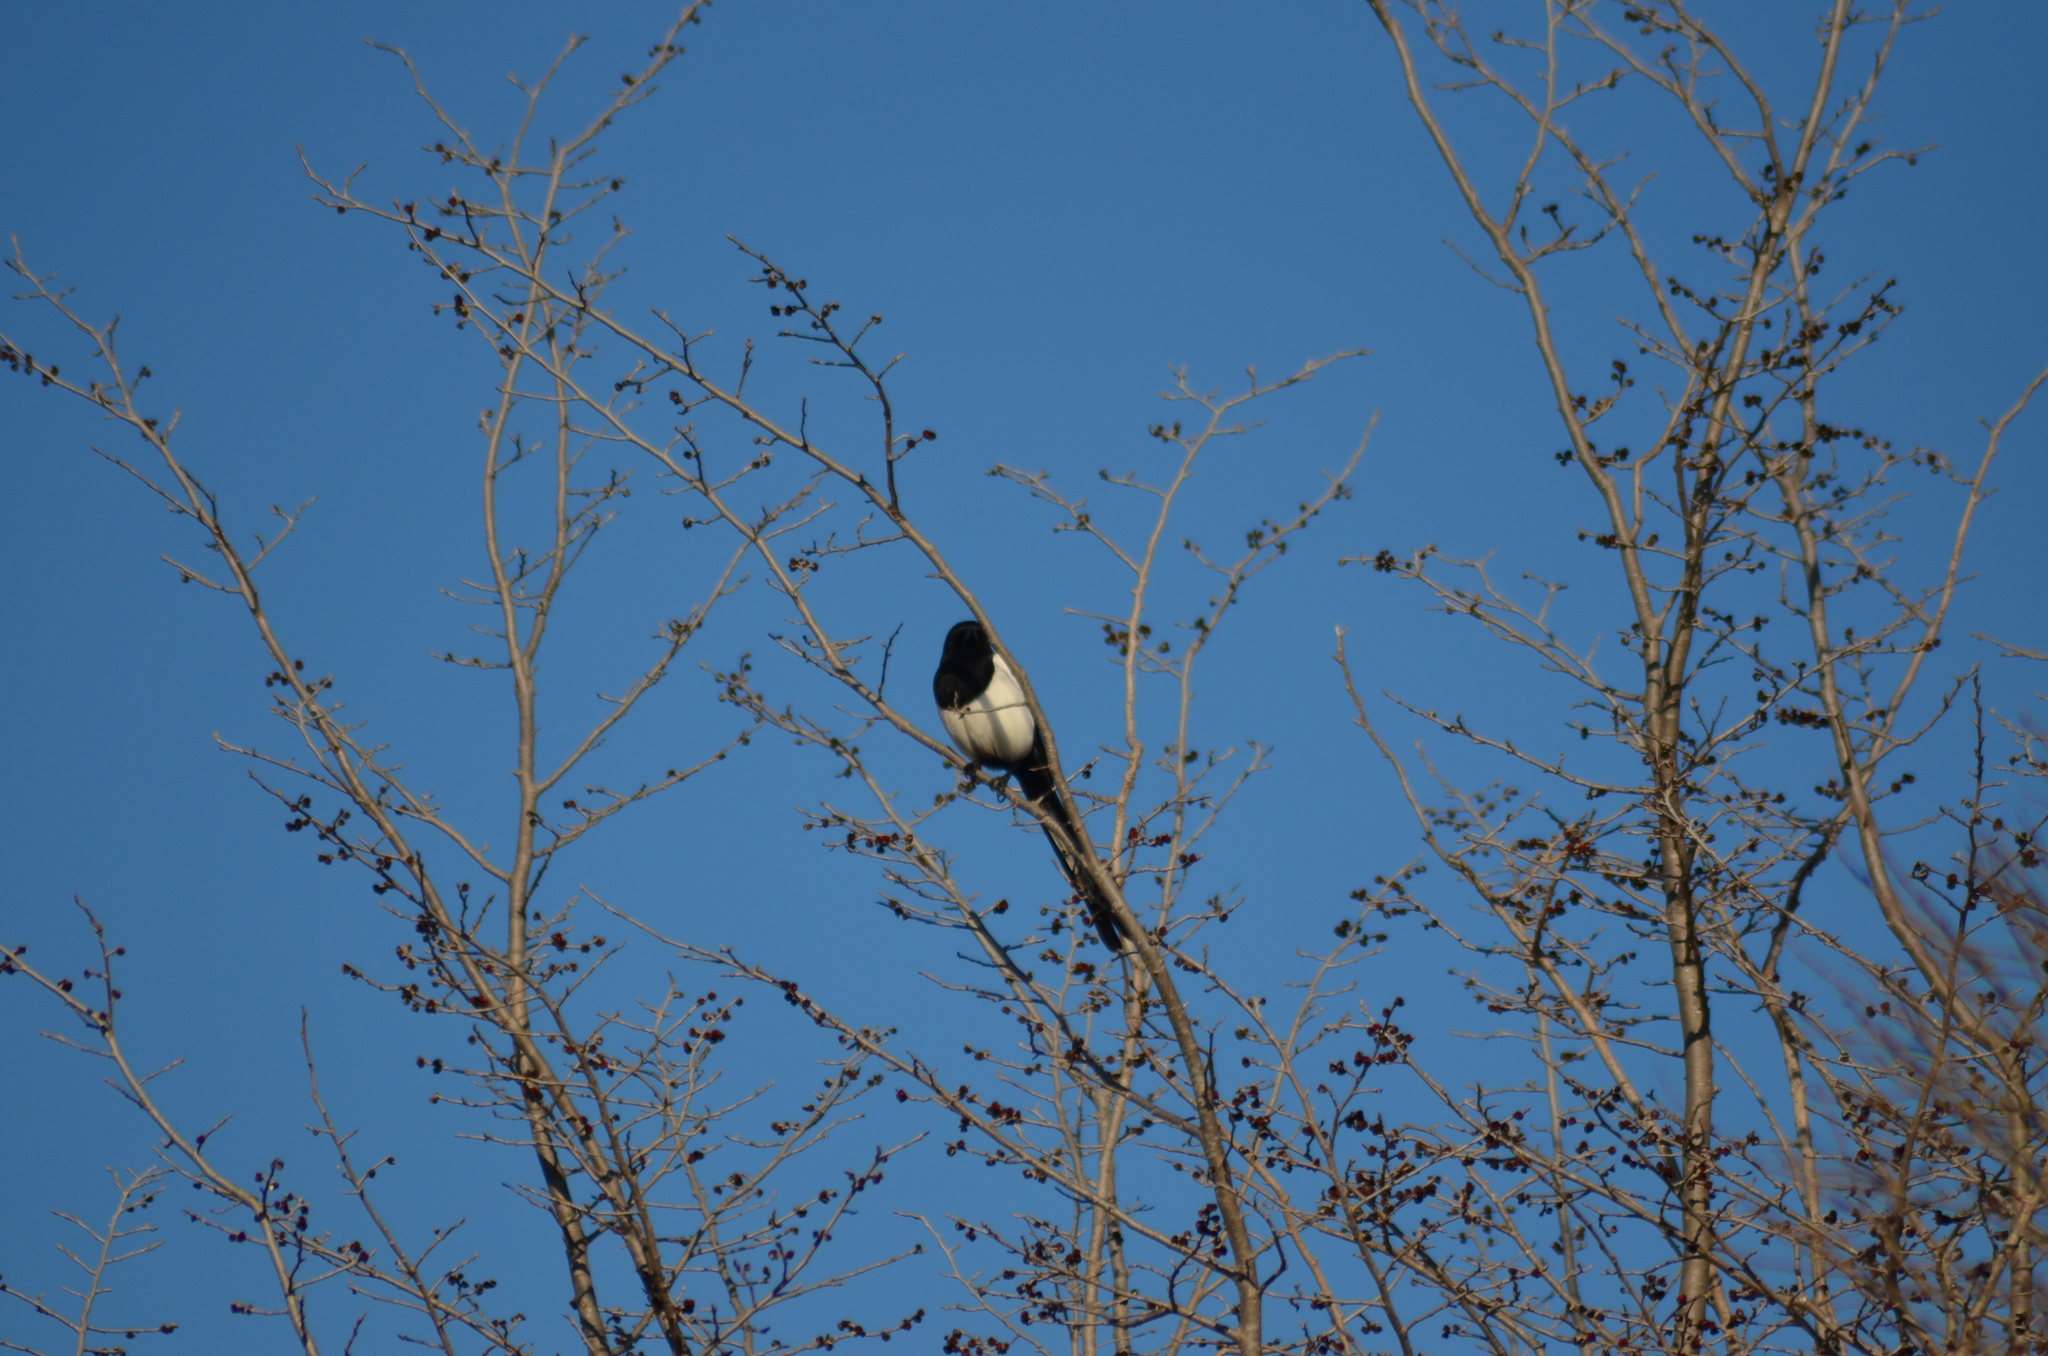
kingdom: Animalia
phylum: Chordata
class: Aves
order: Passeriformes
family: Corvidae
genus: Pica
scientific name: Pica pica
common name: Eurasian magpie
